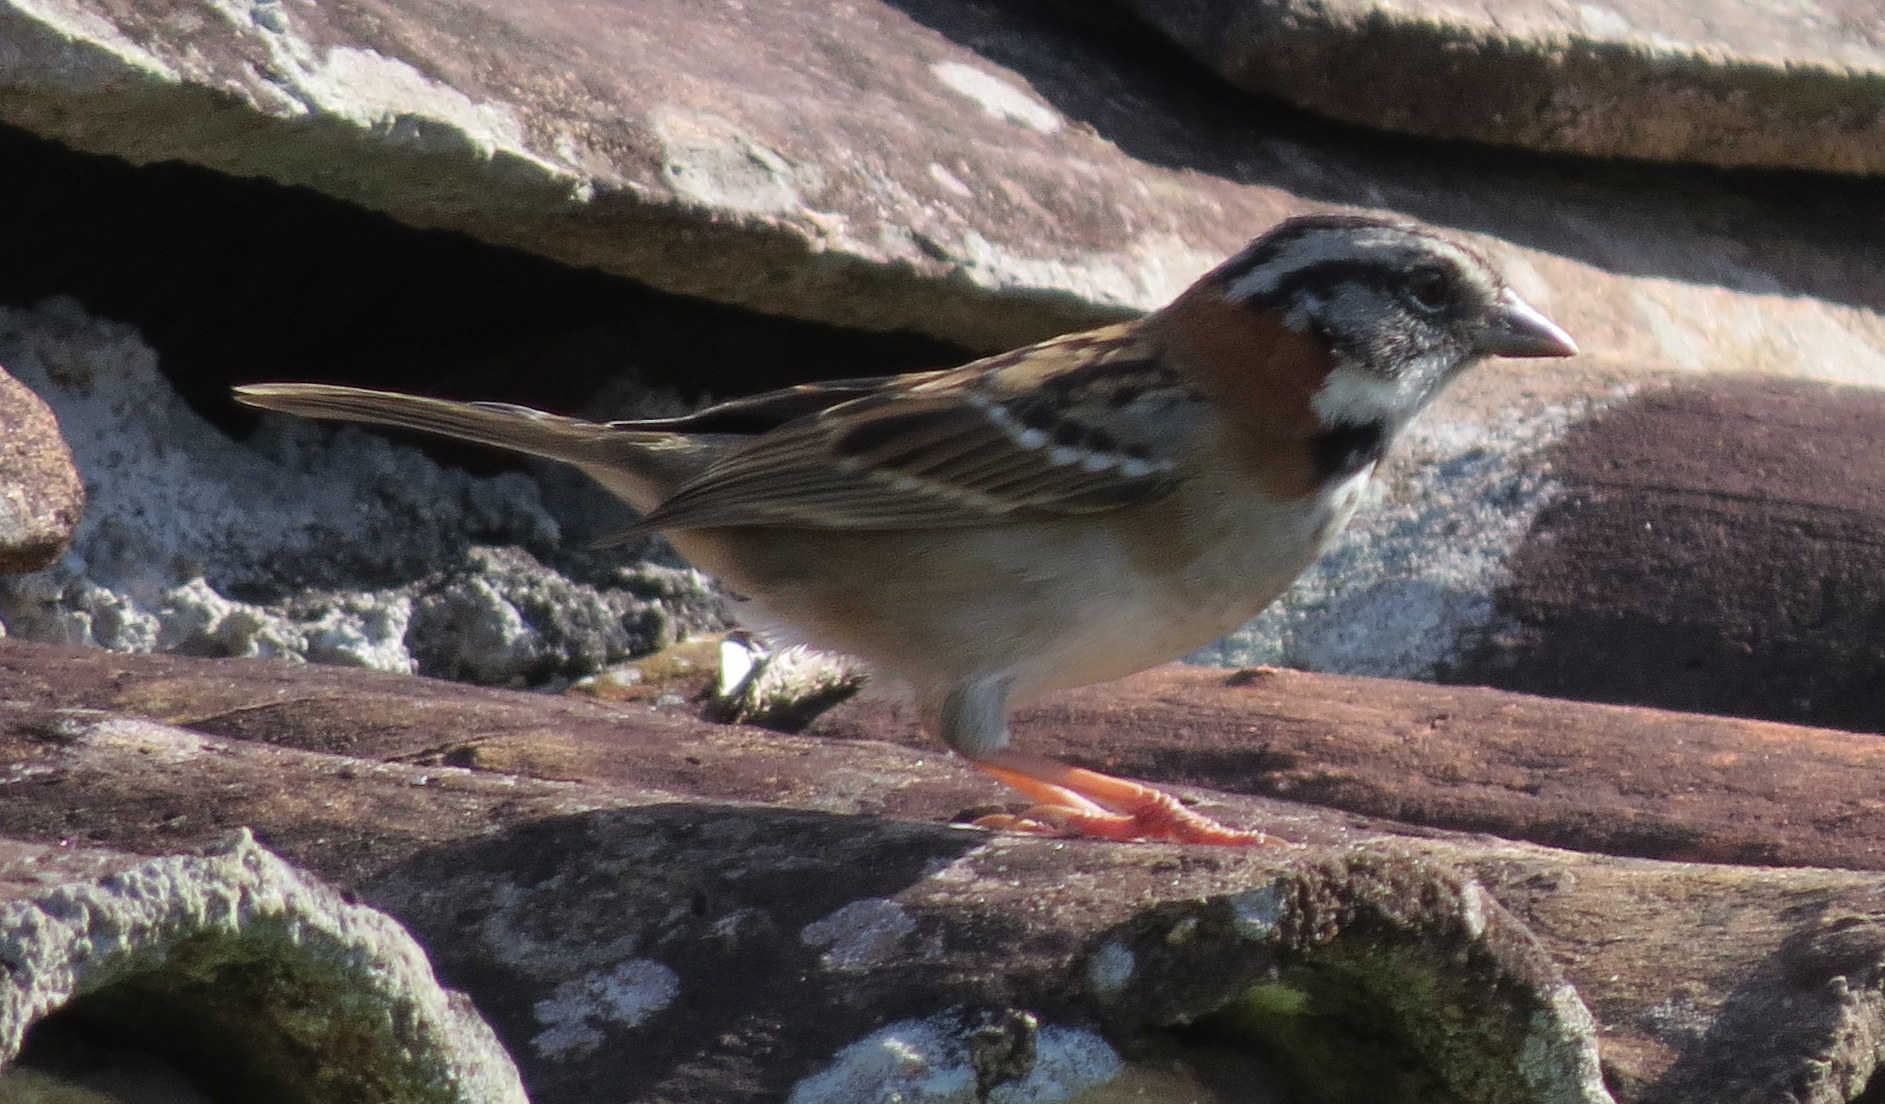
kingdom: Animalia
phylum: Chordata
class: Aves
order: Passeriformes
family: Passerellidae
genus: Zonotrichia
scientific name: Zonotrichia capensis
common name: Rufous-collared sparrow
